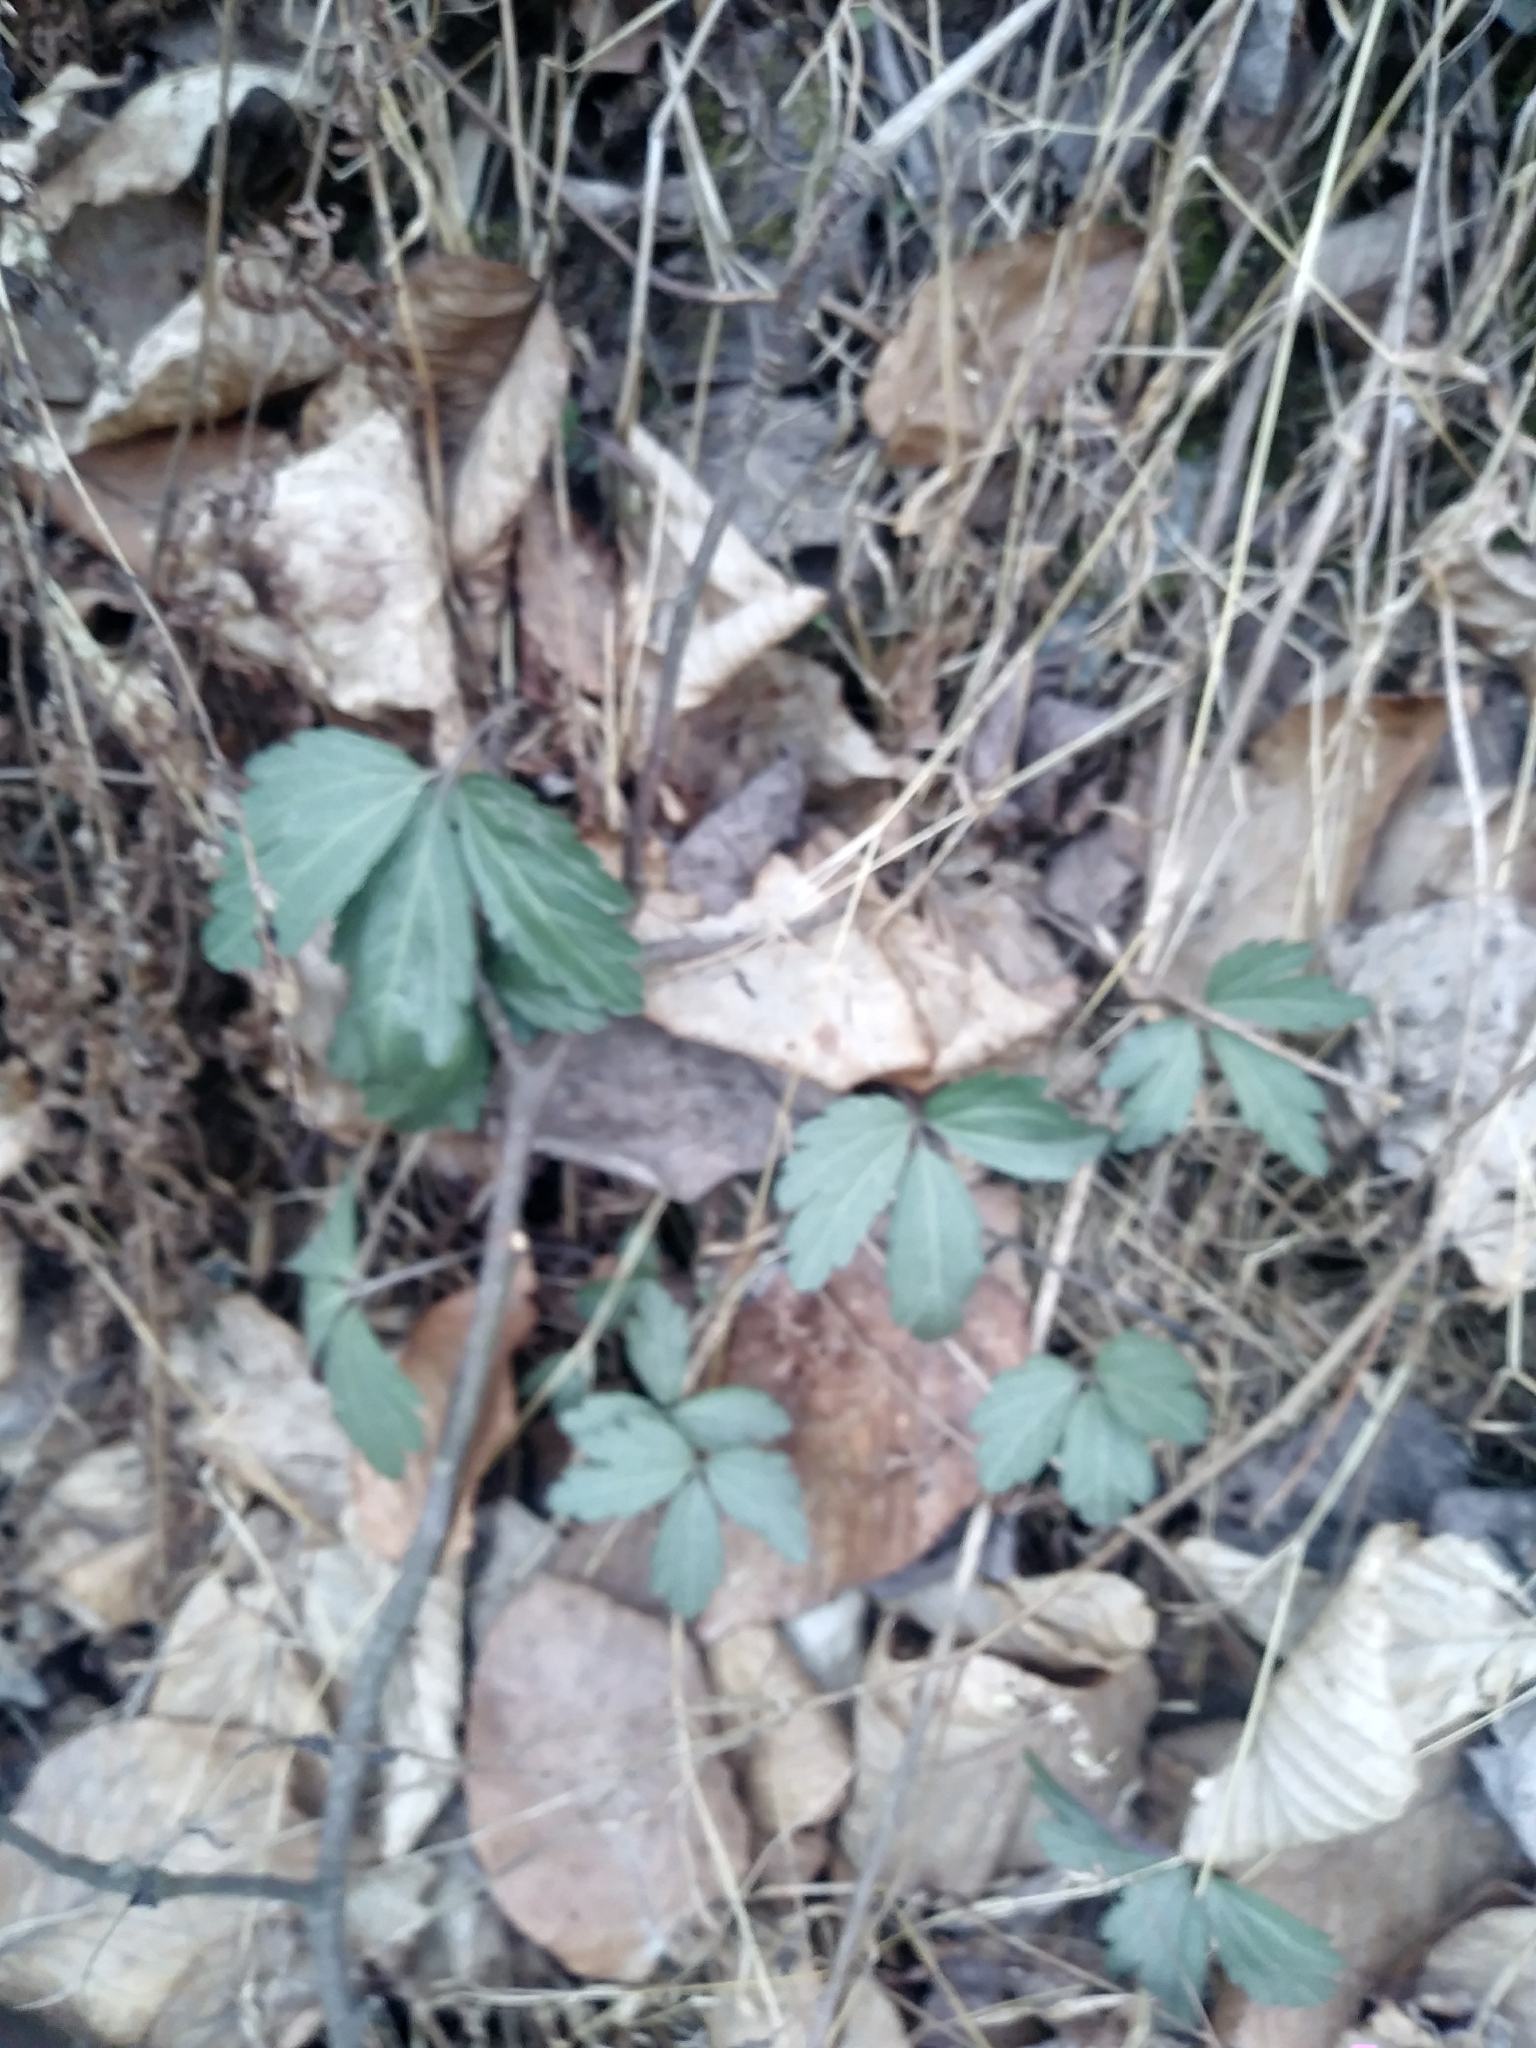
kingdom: Plantae
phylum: Tracheophyta
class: Magnoliopsida
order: Brassicales
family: Brassicaceae
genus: Cardamine
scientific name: Cardamine angustata
